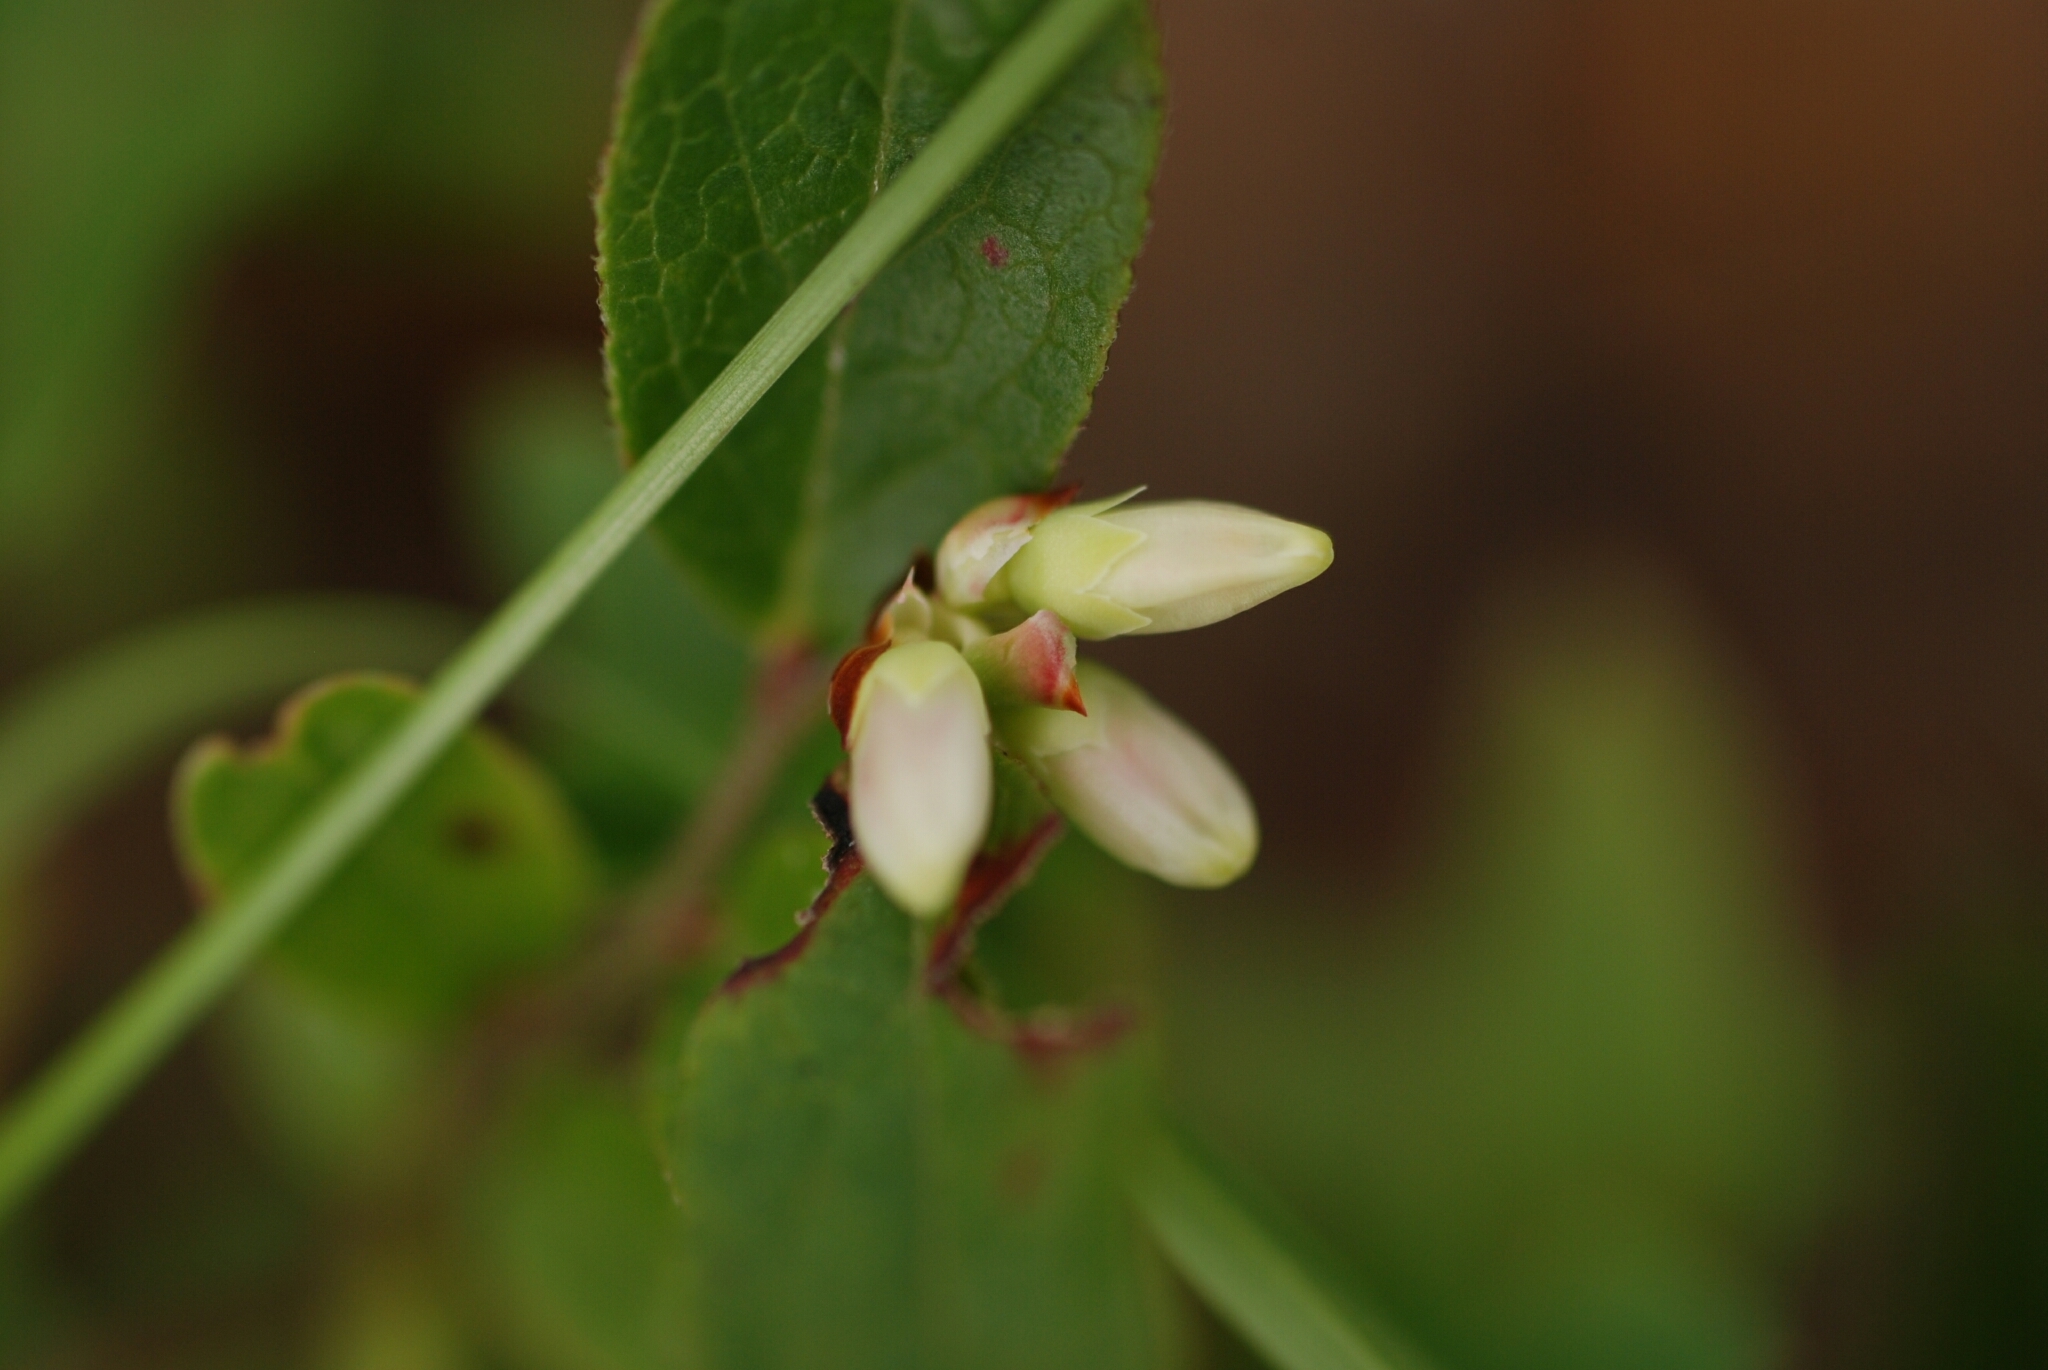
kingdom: Plantae
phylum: Tracheophyta
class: Magnoliopsida
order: Ericales
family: Ericaceae
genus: Vaccinium
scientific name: Vaccinium angustifolium
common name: Early lowbush blueberry
